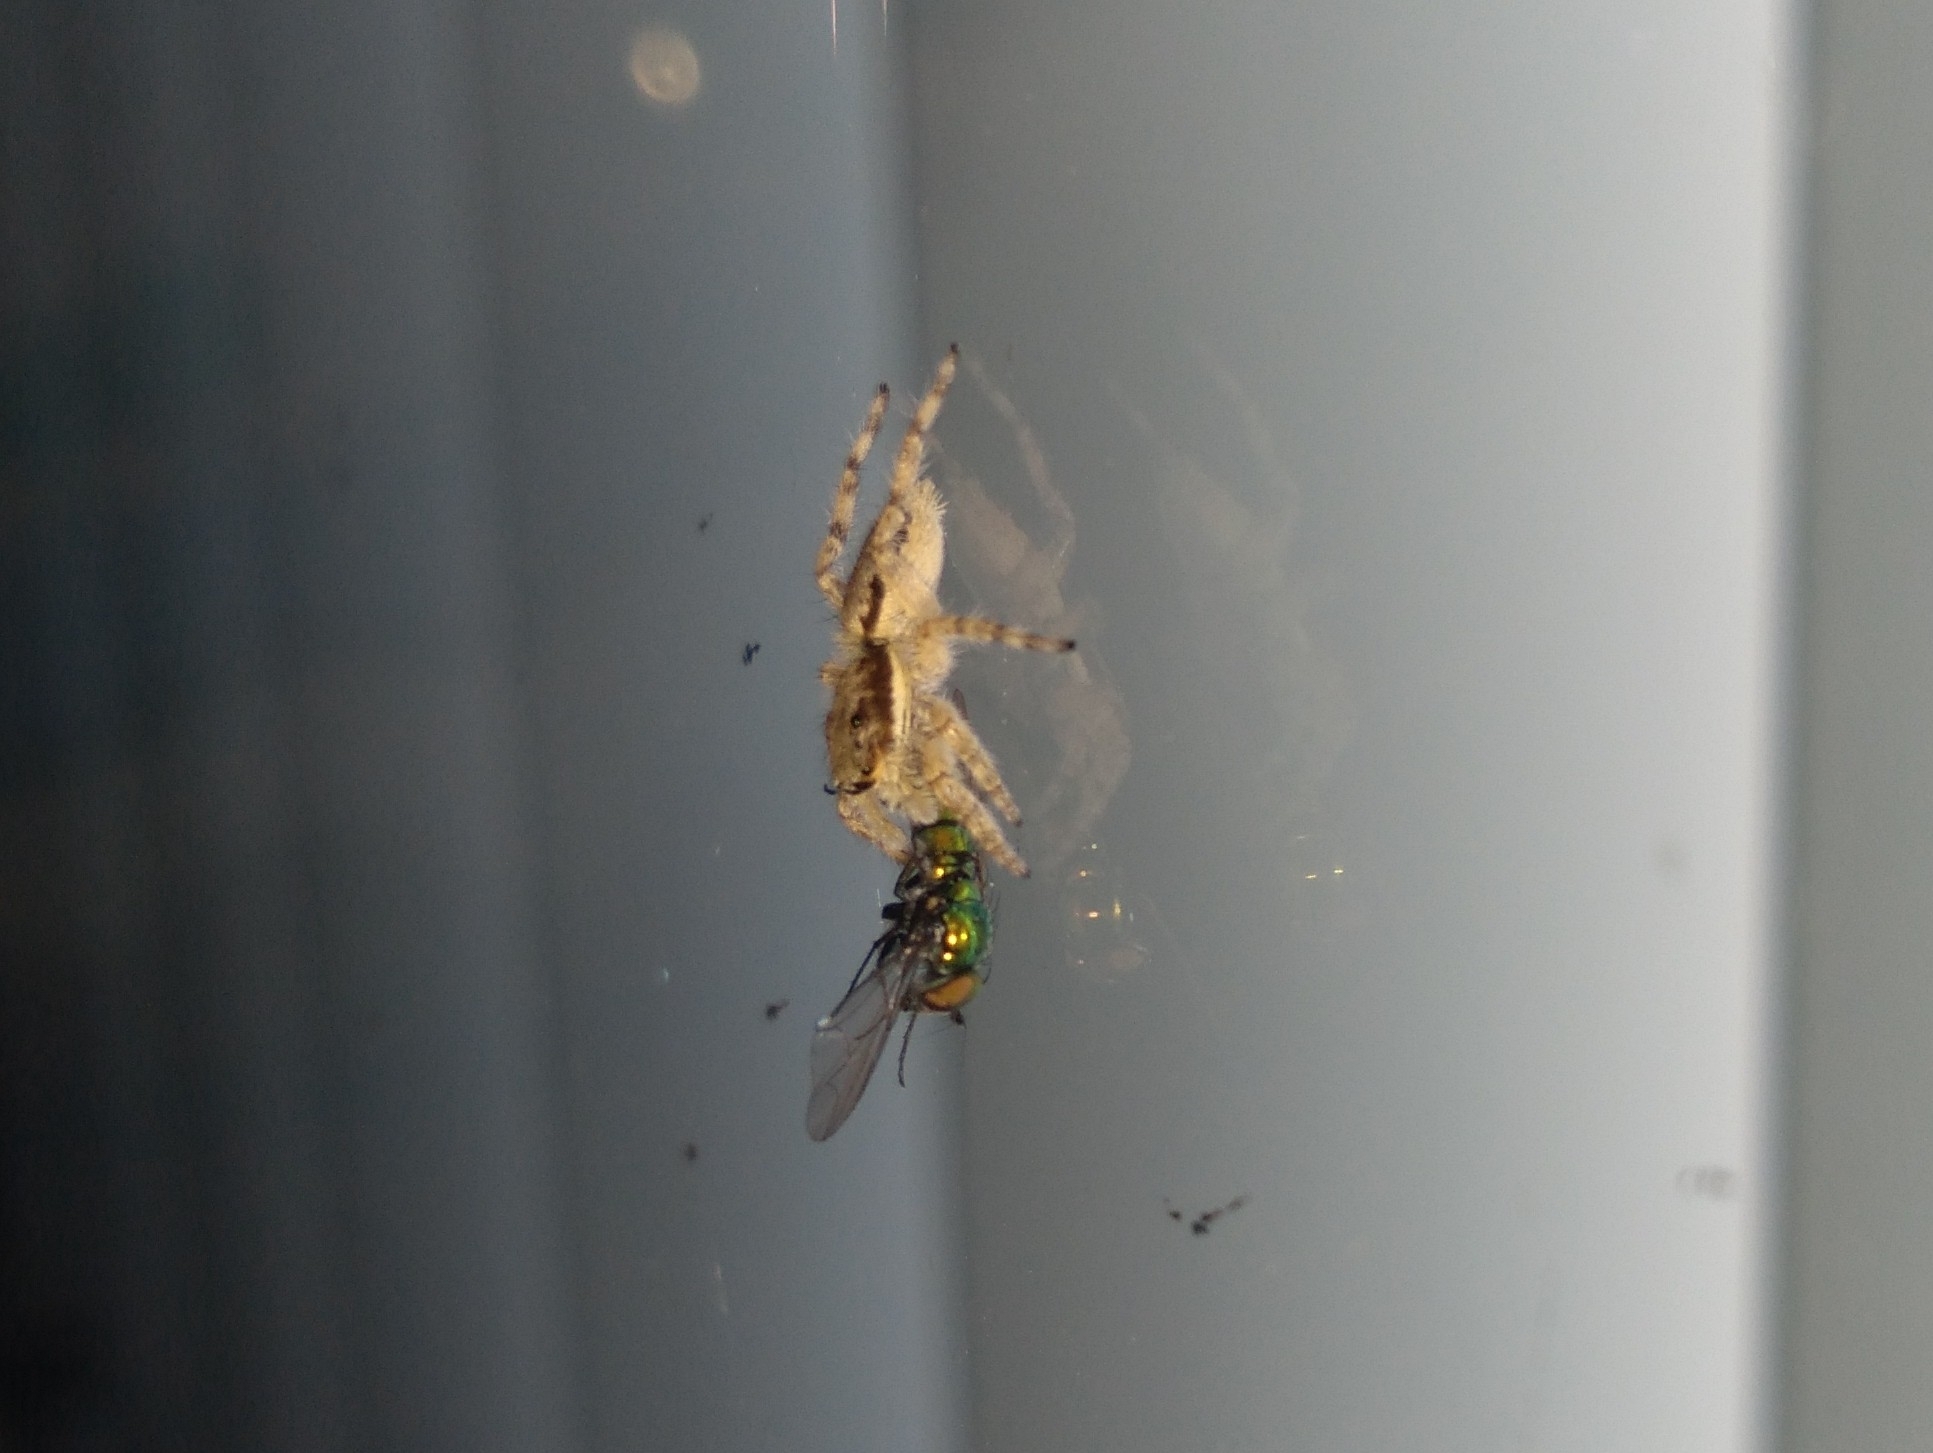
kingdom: Animalia
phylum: Arthropoda
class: Arachnida
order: Araneae
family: Salticidae
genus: Menemerus
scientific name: Menemerus bivittatus
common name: Gray wall jumper
